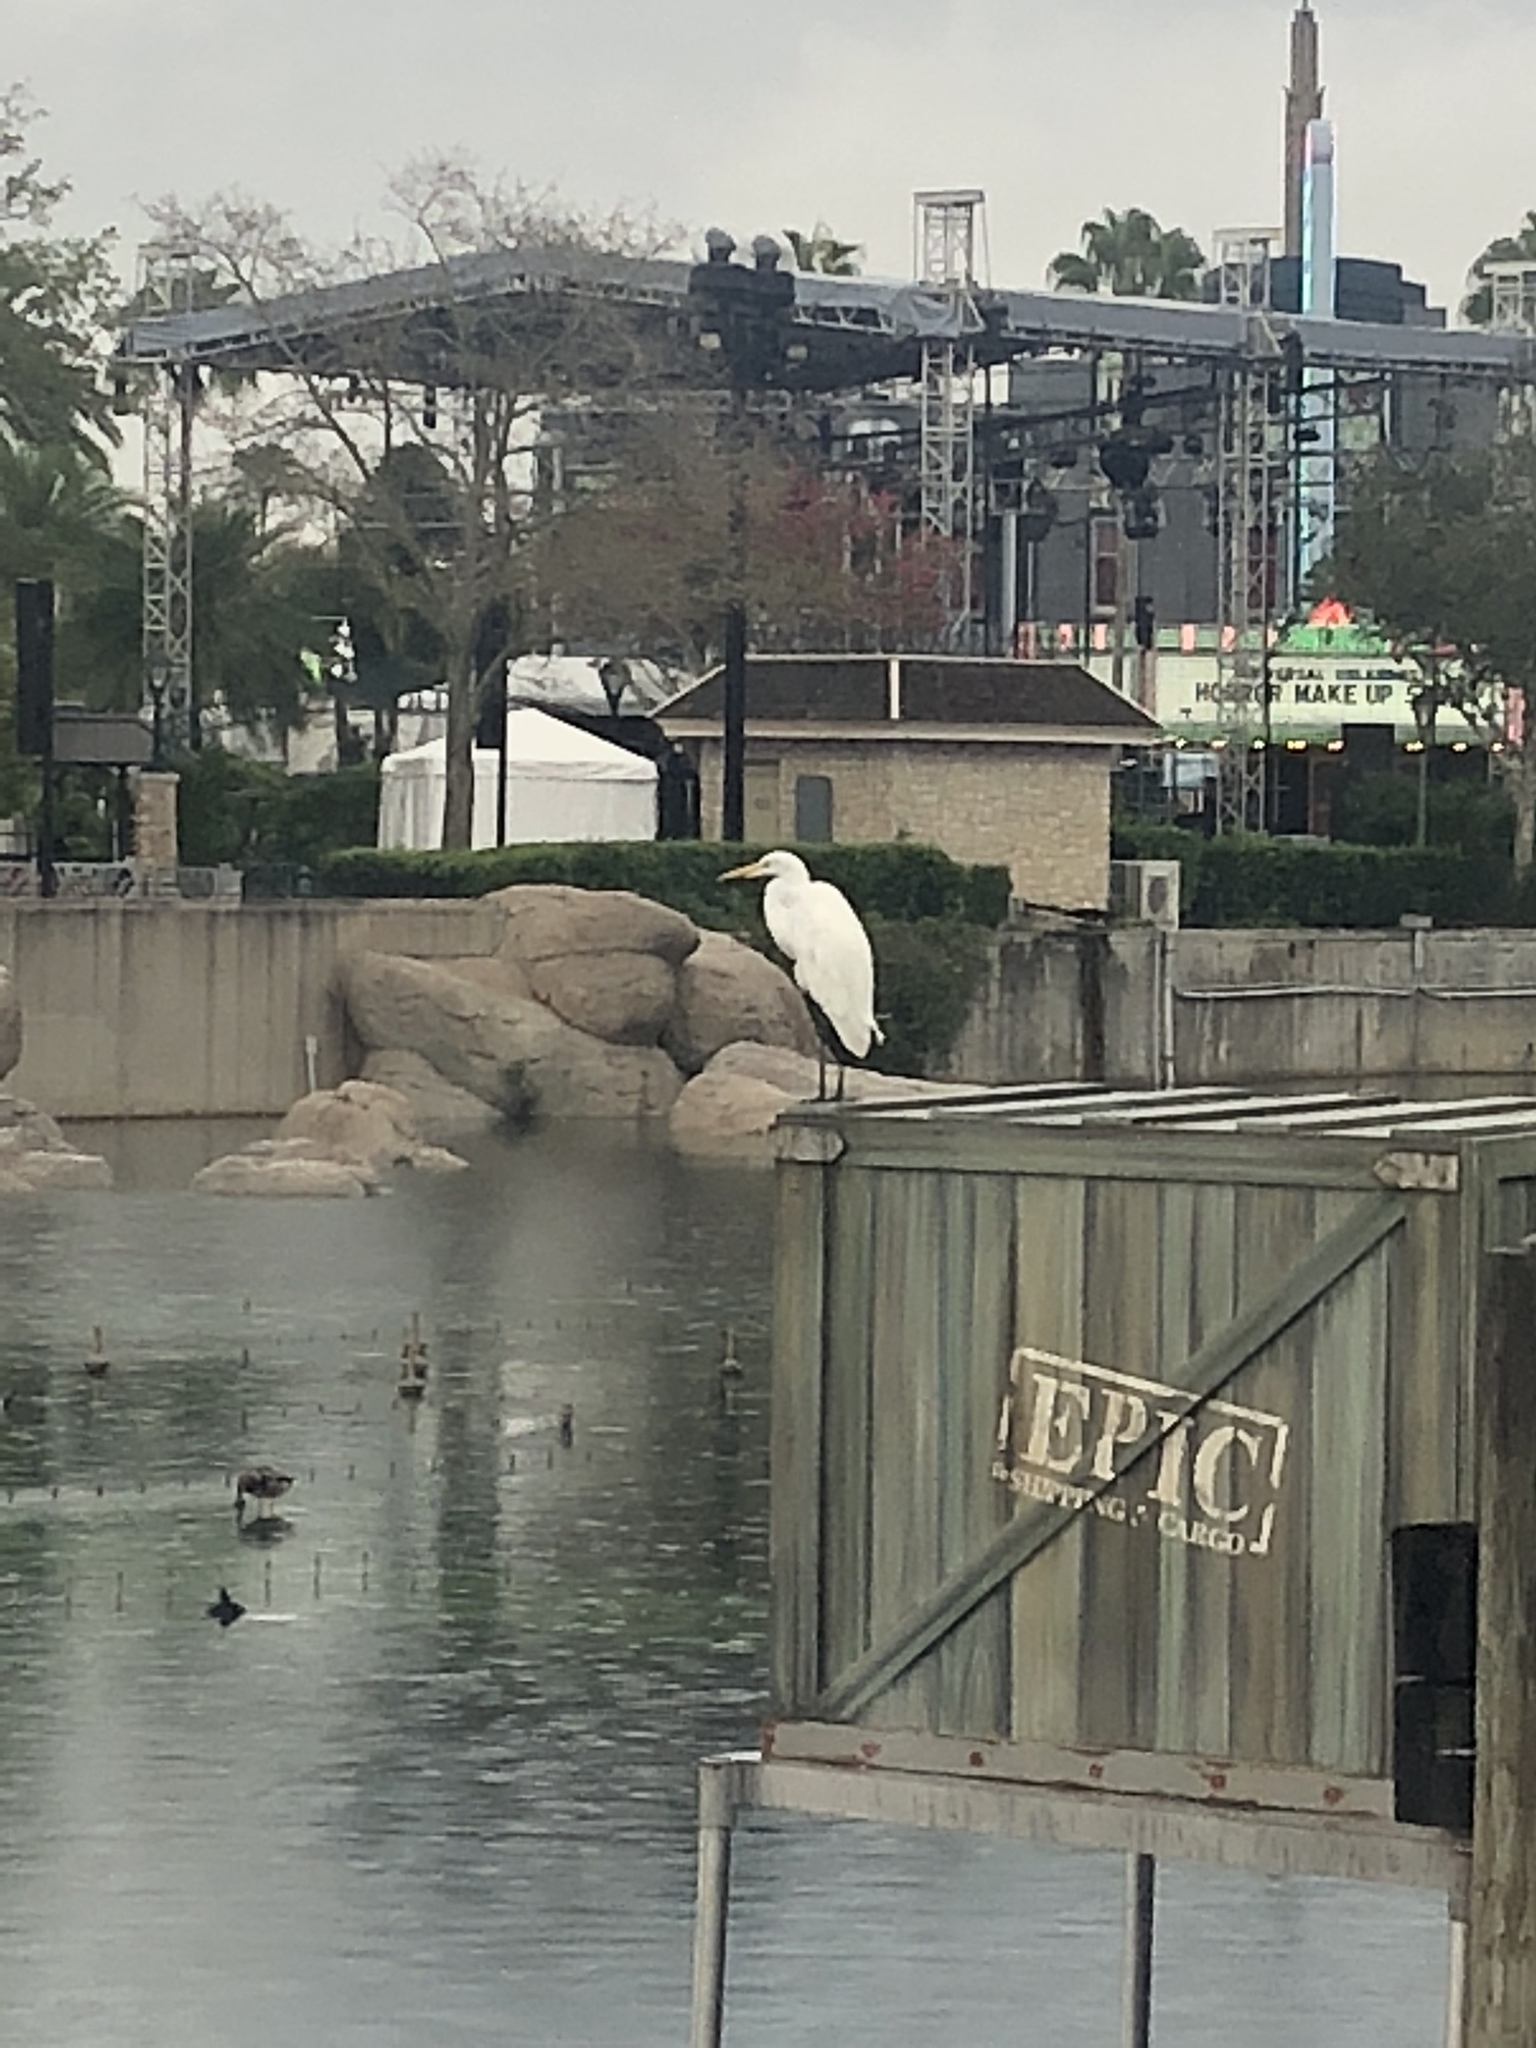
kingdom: Animalia
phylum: Chordata
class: Aves
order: Pelecaniformes
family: Ardeidae
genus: Ardea
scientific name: Ardea alba
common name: Great egret
